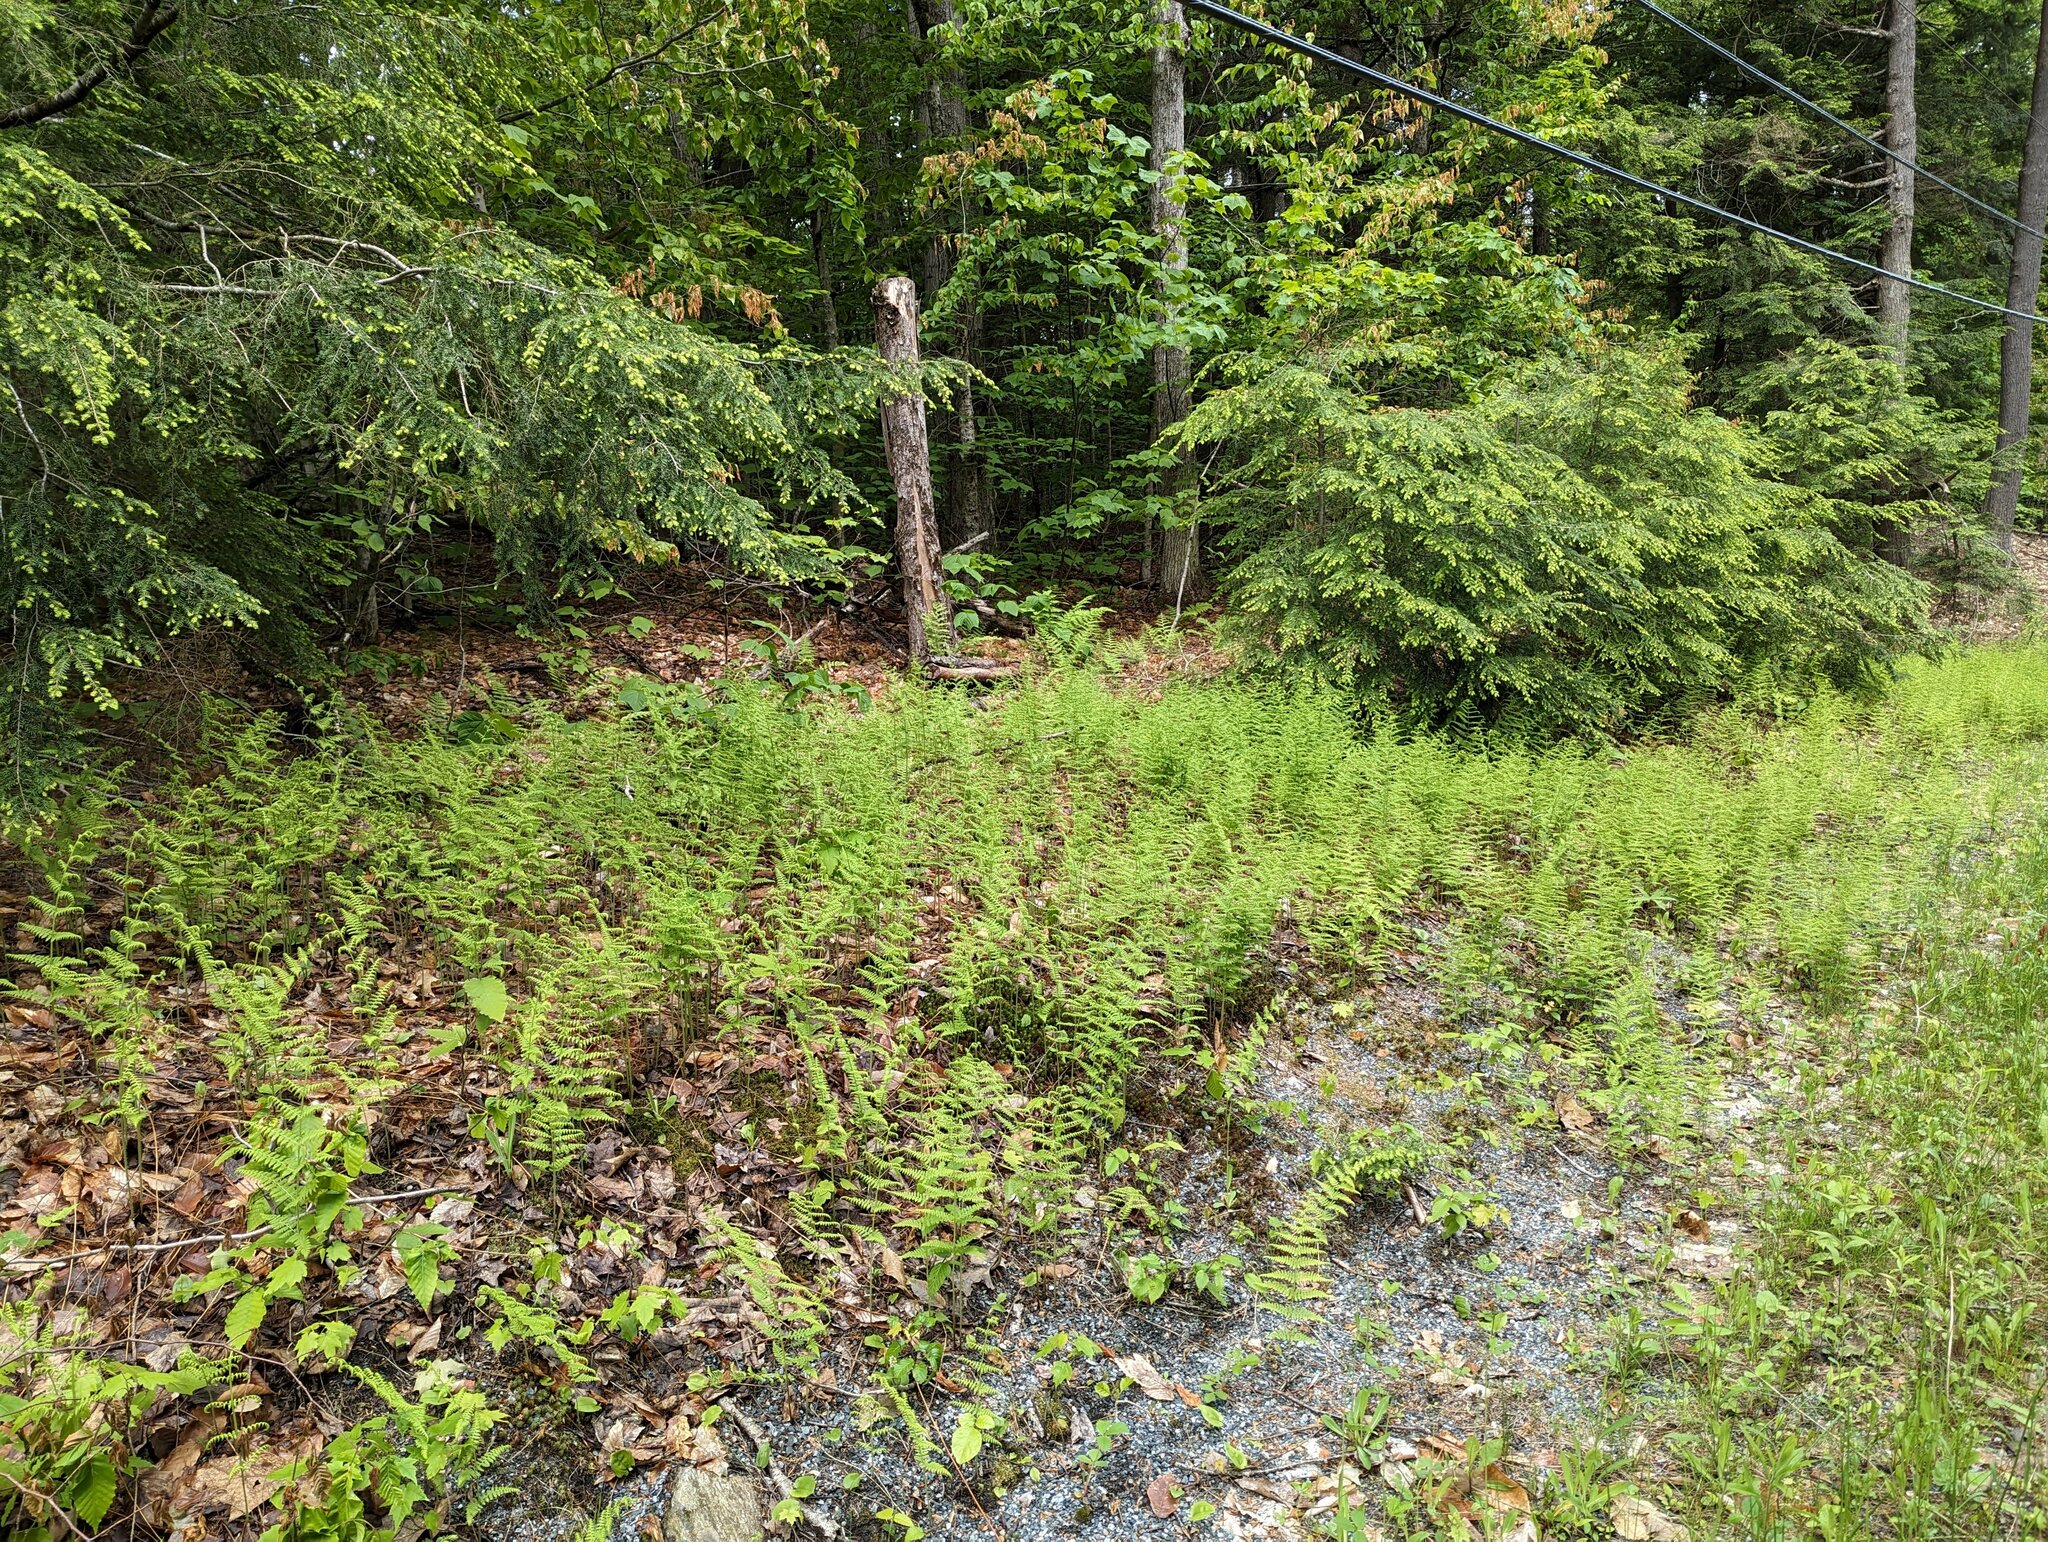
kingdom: Plantae
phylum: Tracheophyta
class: Polypodiopsida
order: Polypodiales
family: Dennstaedtiaceae
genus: Sitobolium
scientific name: Sitobolium punctilobum
